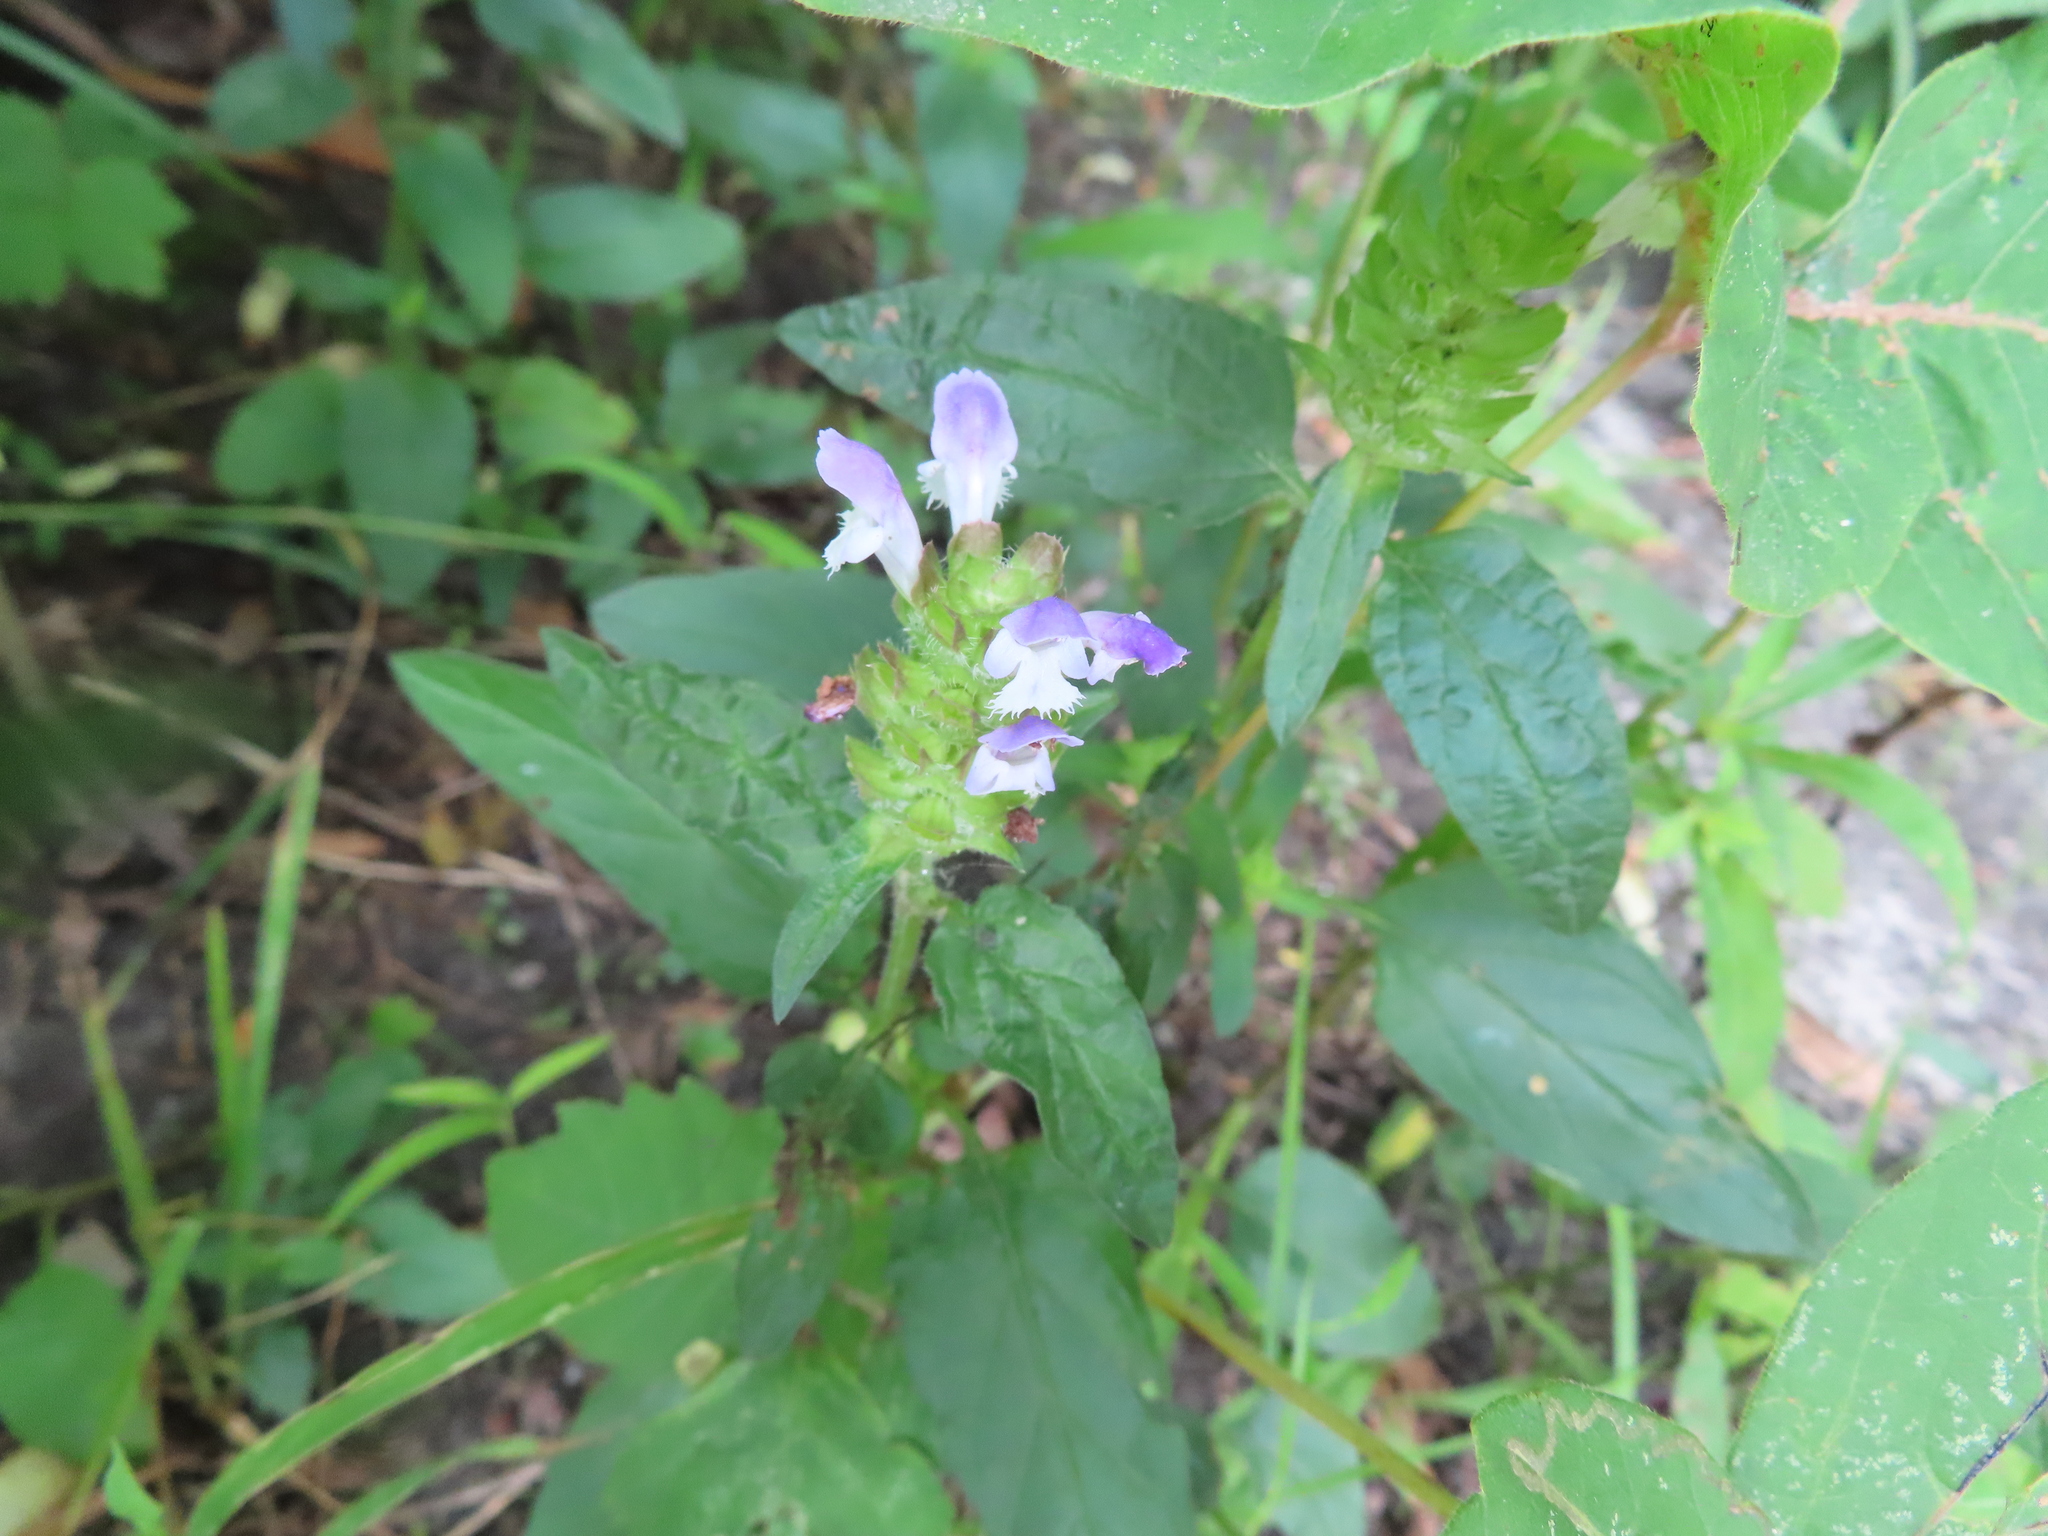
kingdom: Plantae
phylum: Tracheophyta
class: Magnoliopsida
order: Lamiales
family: Lamiaceae
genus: Prunella
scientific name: Prunella vulgaris
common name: Heal-all
